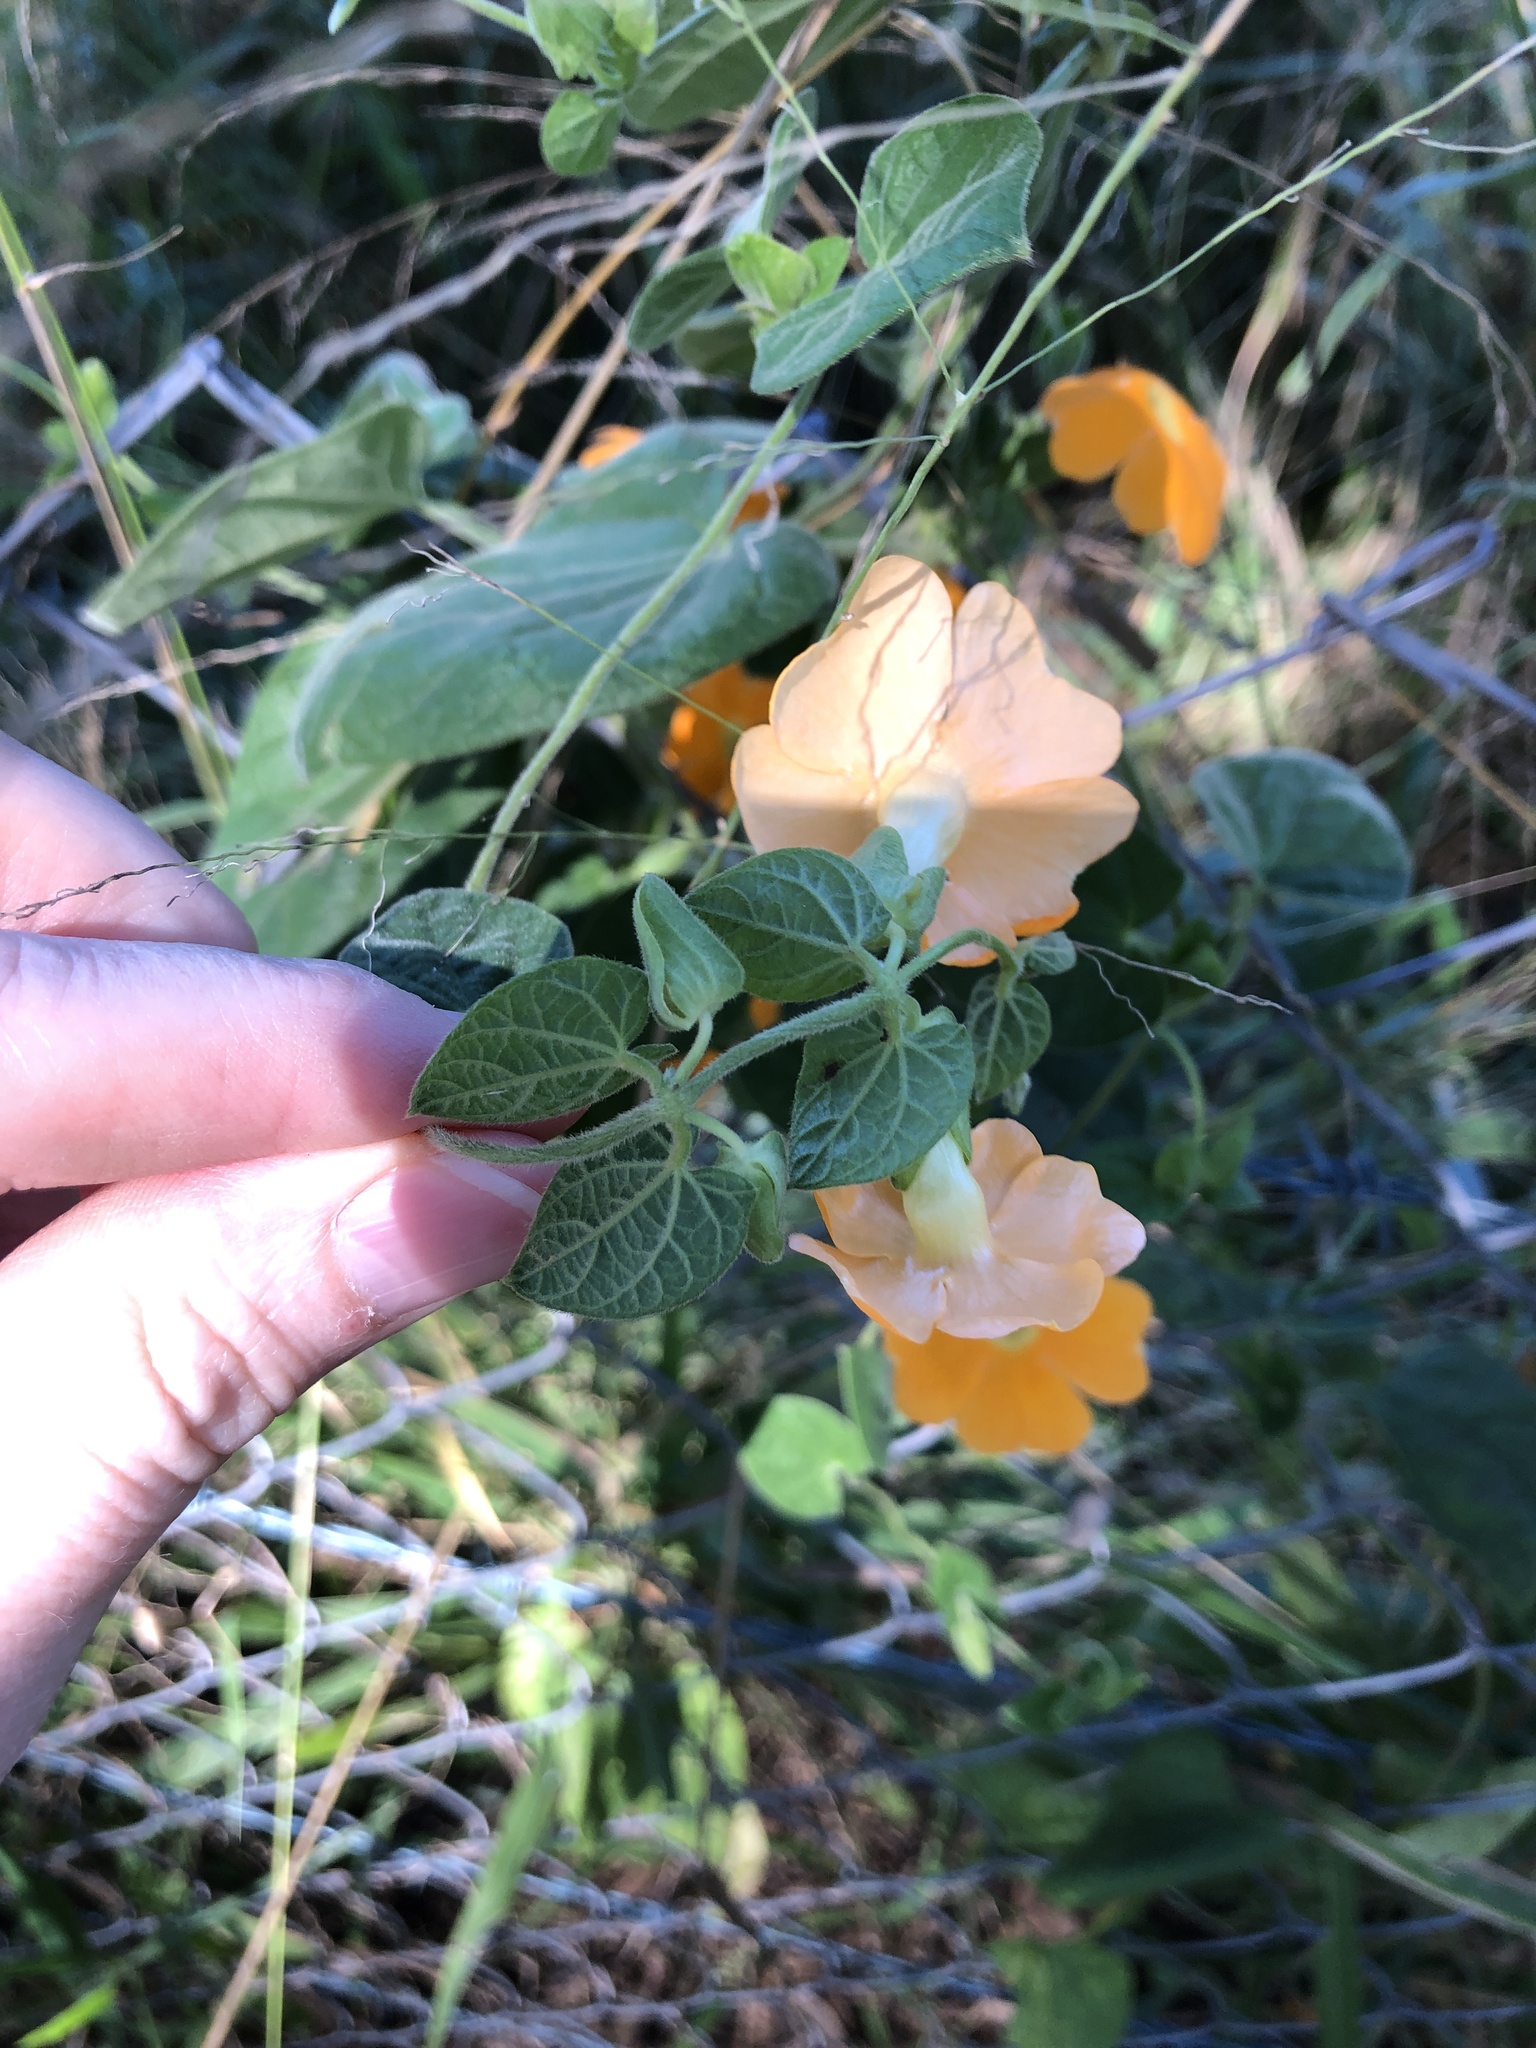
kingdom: Plantae
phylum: Tracheophyta
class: Magnoliopsida
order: Lamiales
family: Acanthaceae
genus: Thunbergia
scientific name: Thunbergia alata
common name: Blackeyed susan vine
